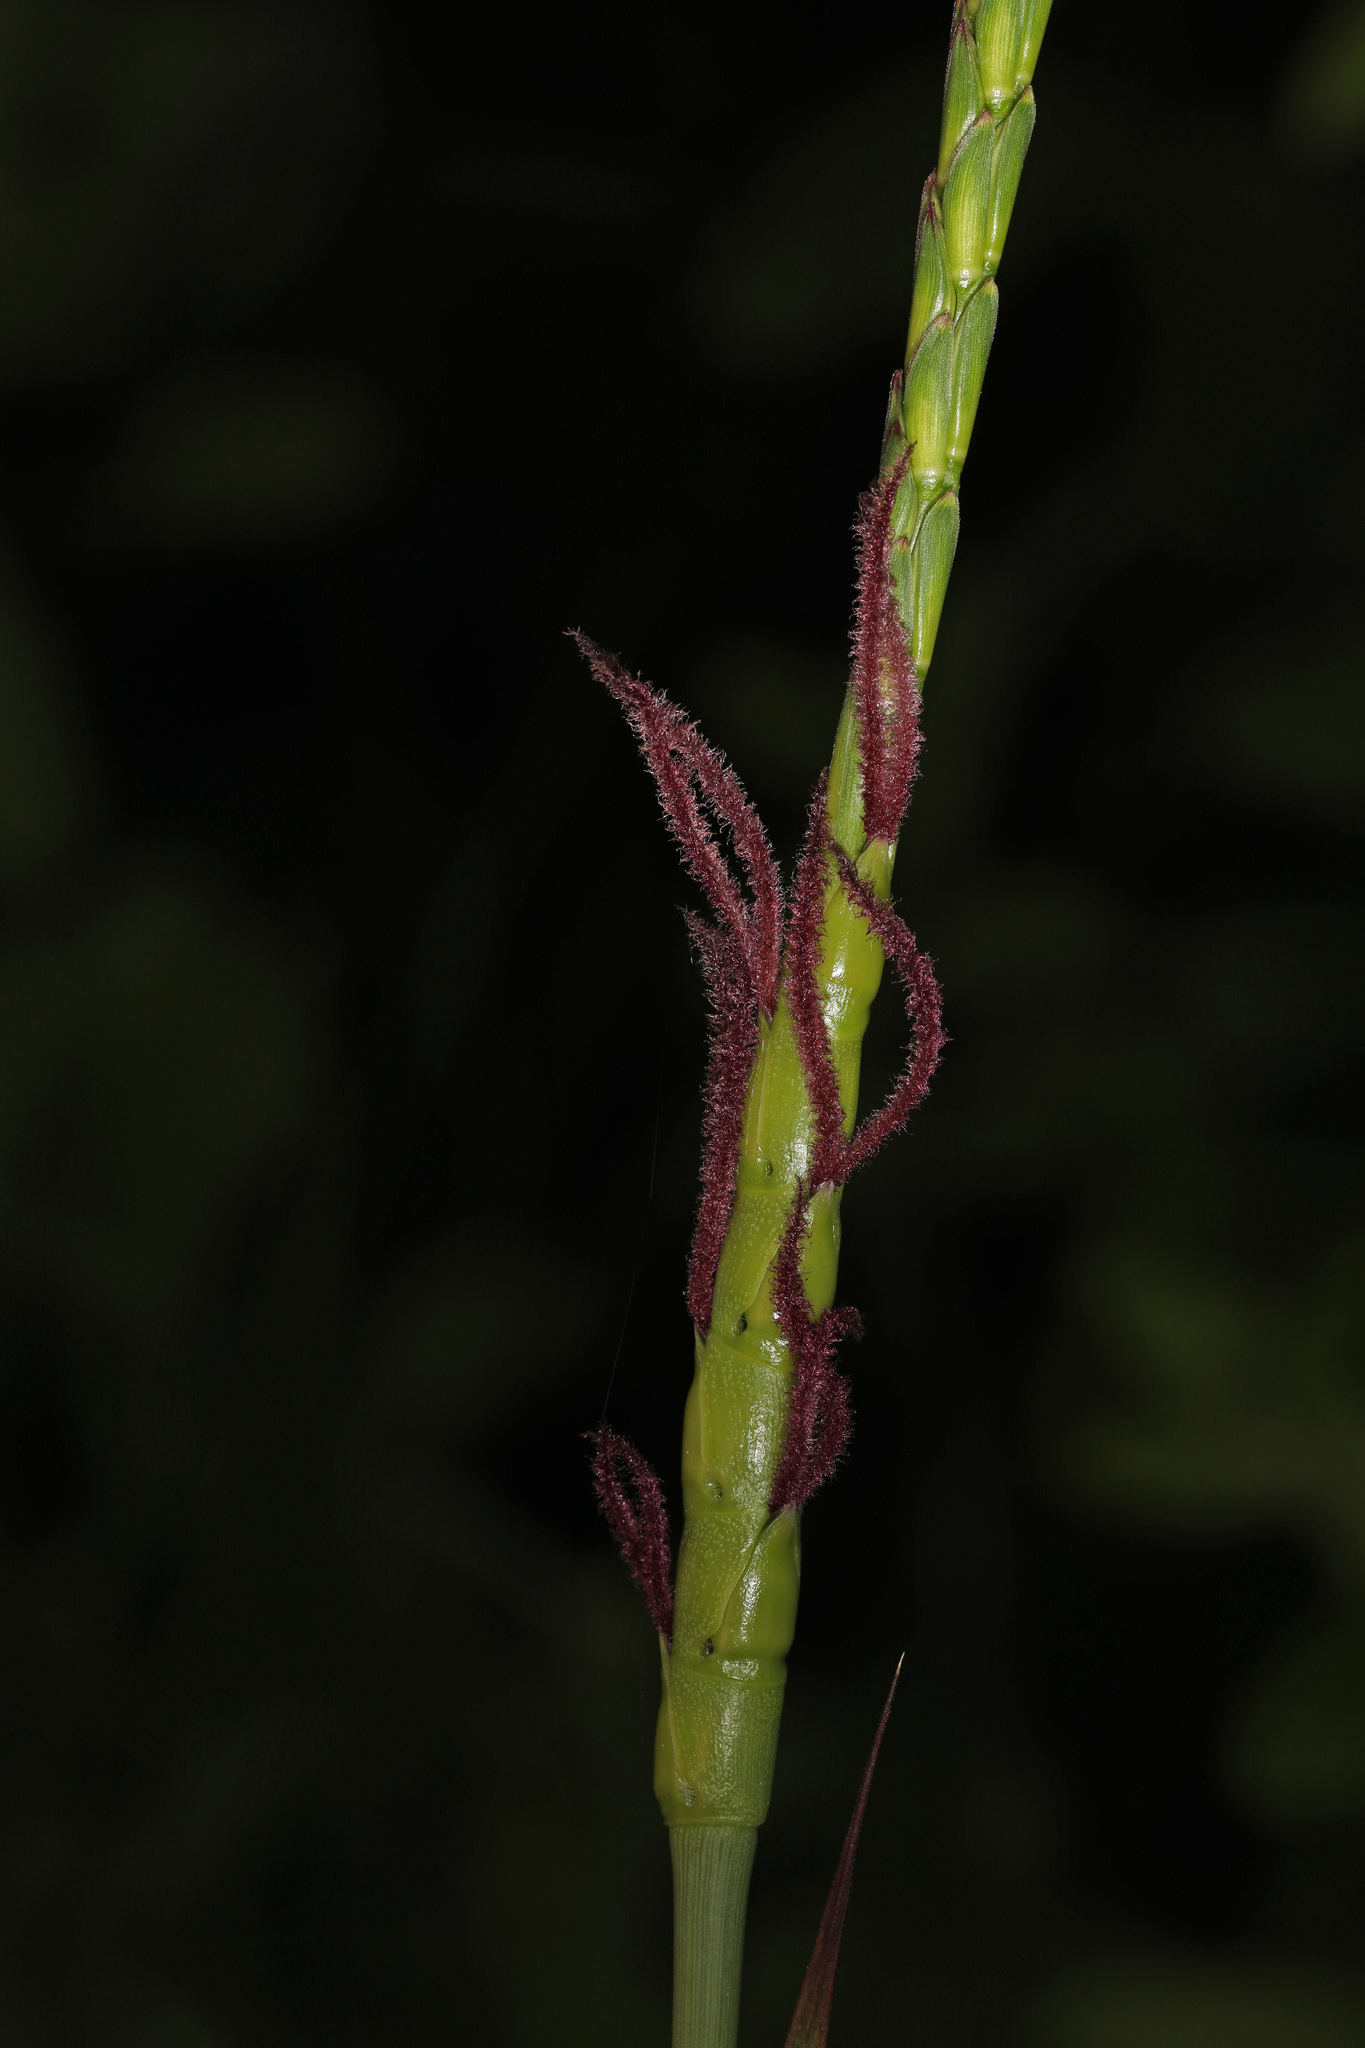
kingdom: Plantae
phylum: Tracheophyta
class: Liliopsida
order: Poales
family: Poaceae
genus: Tripsacum
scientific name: Tripsacum dactyloides
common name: Buffalo-grass
